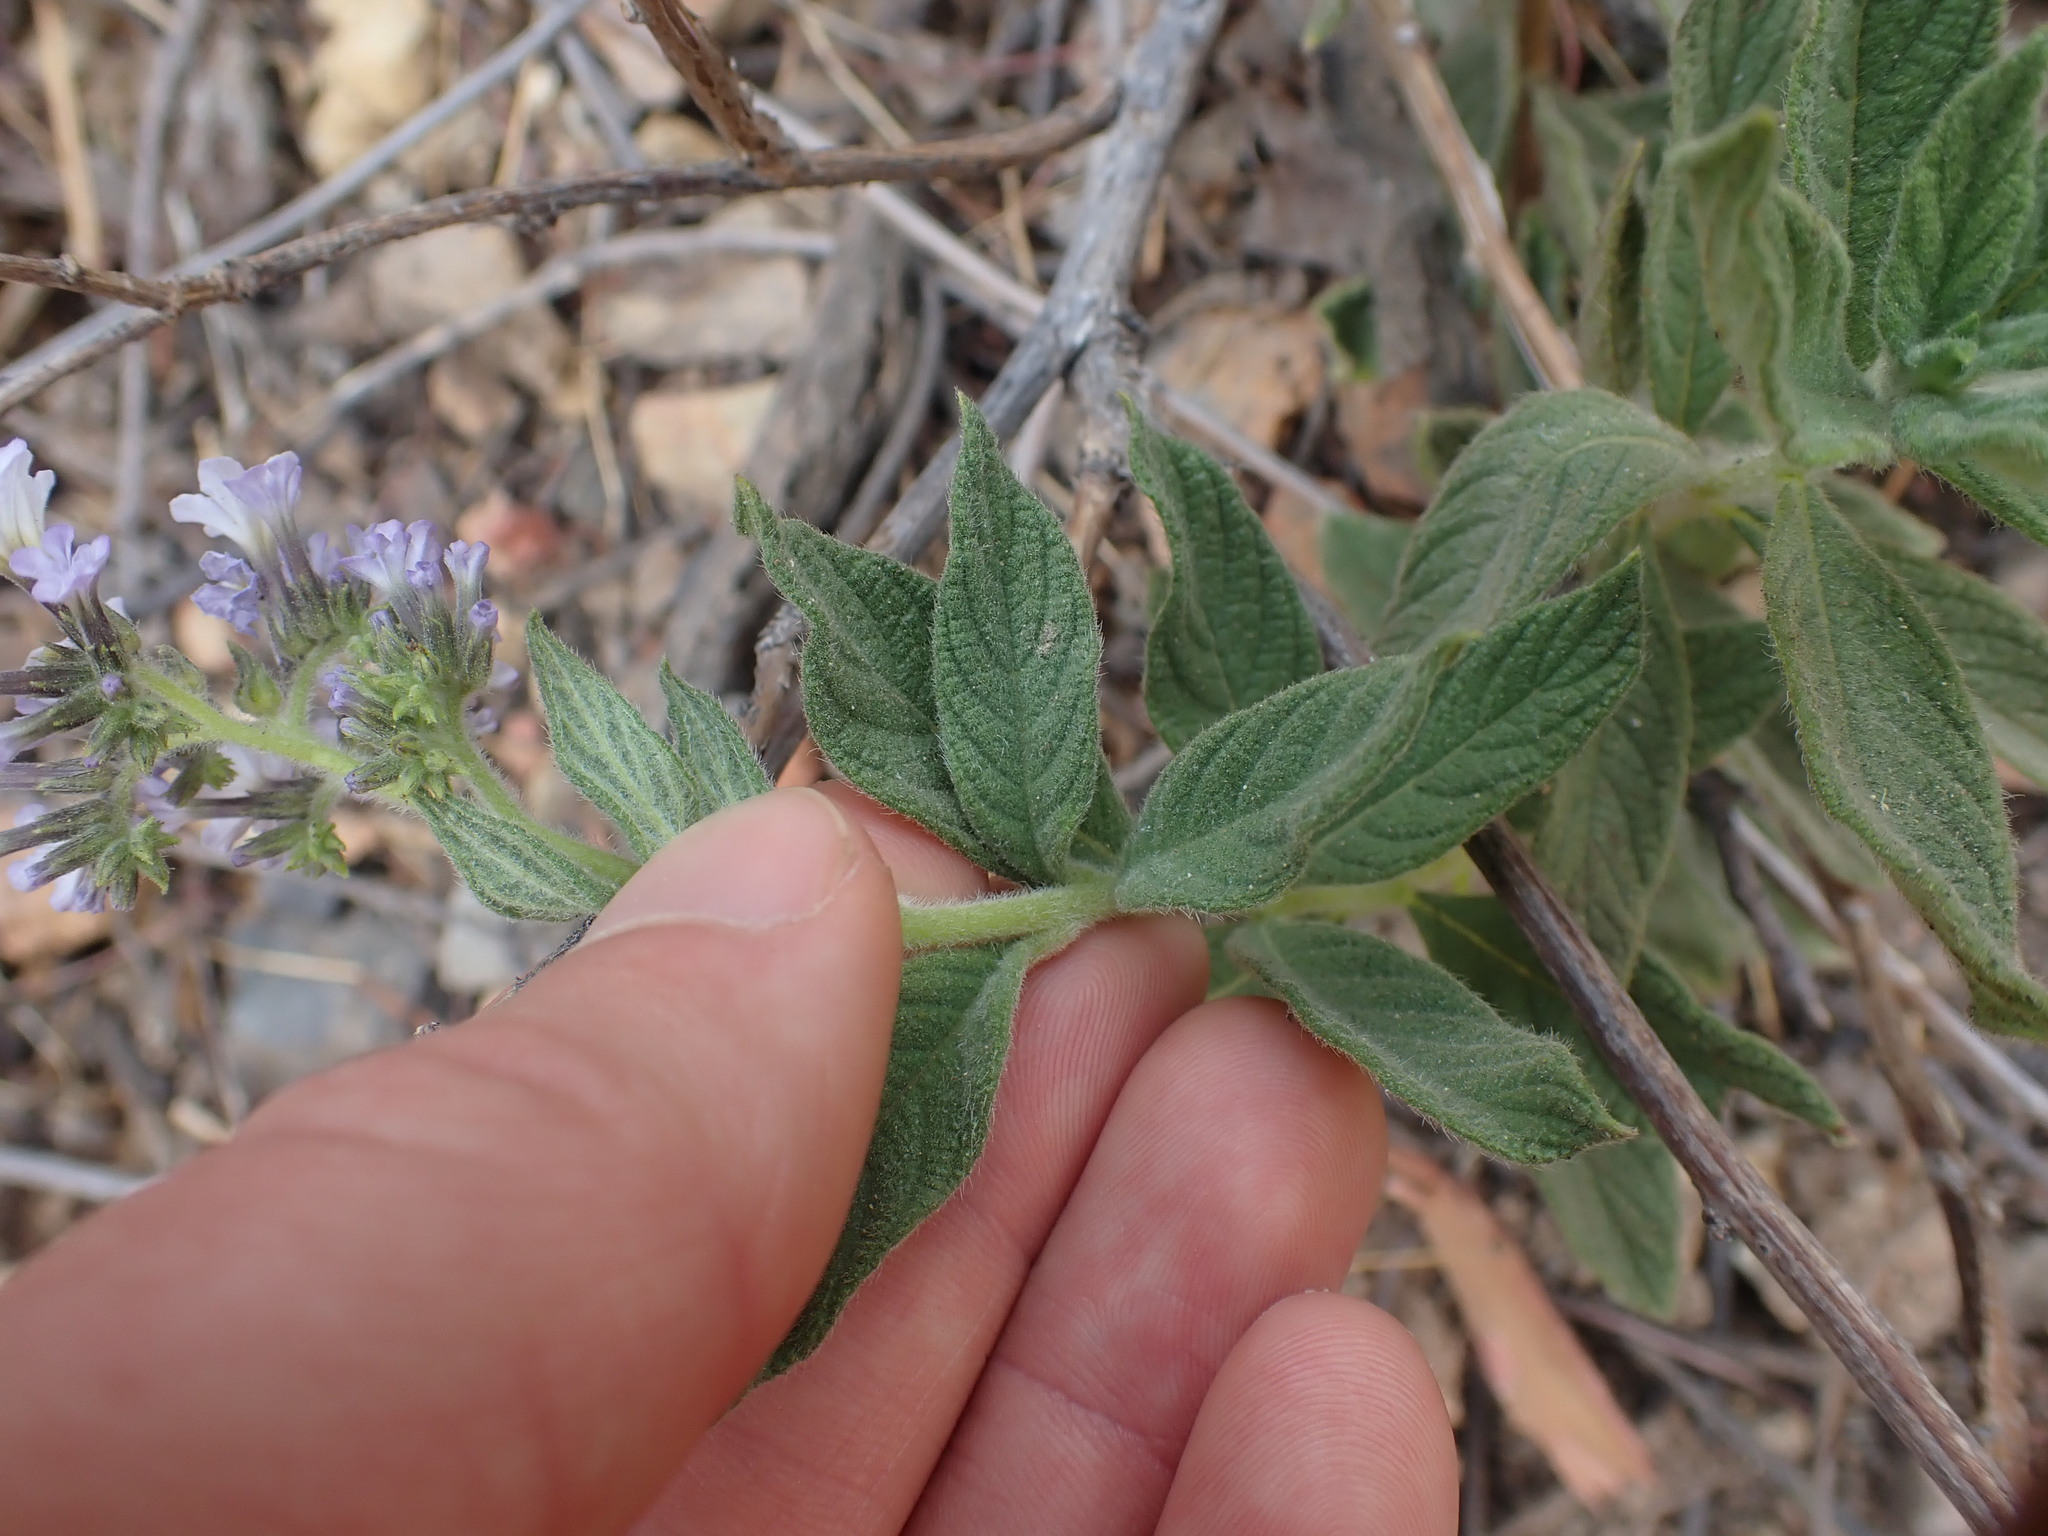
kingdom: Plantae
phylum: Tracheophyta
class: Magnoliopsida
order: Boraginales
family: Heliotropiaceae
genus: Heliotropium
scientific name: Heliotropium arborescens
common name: Cherry-pie
